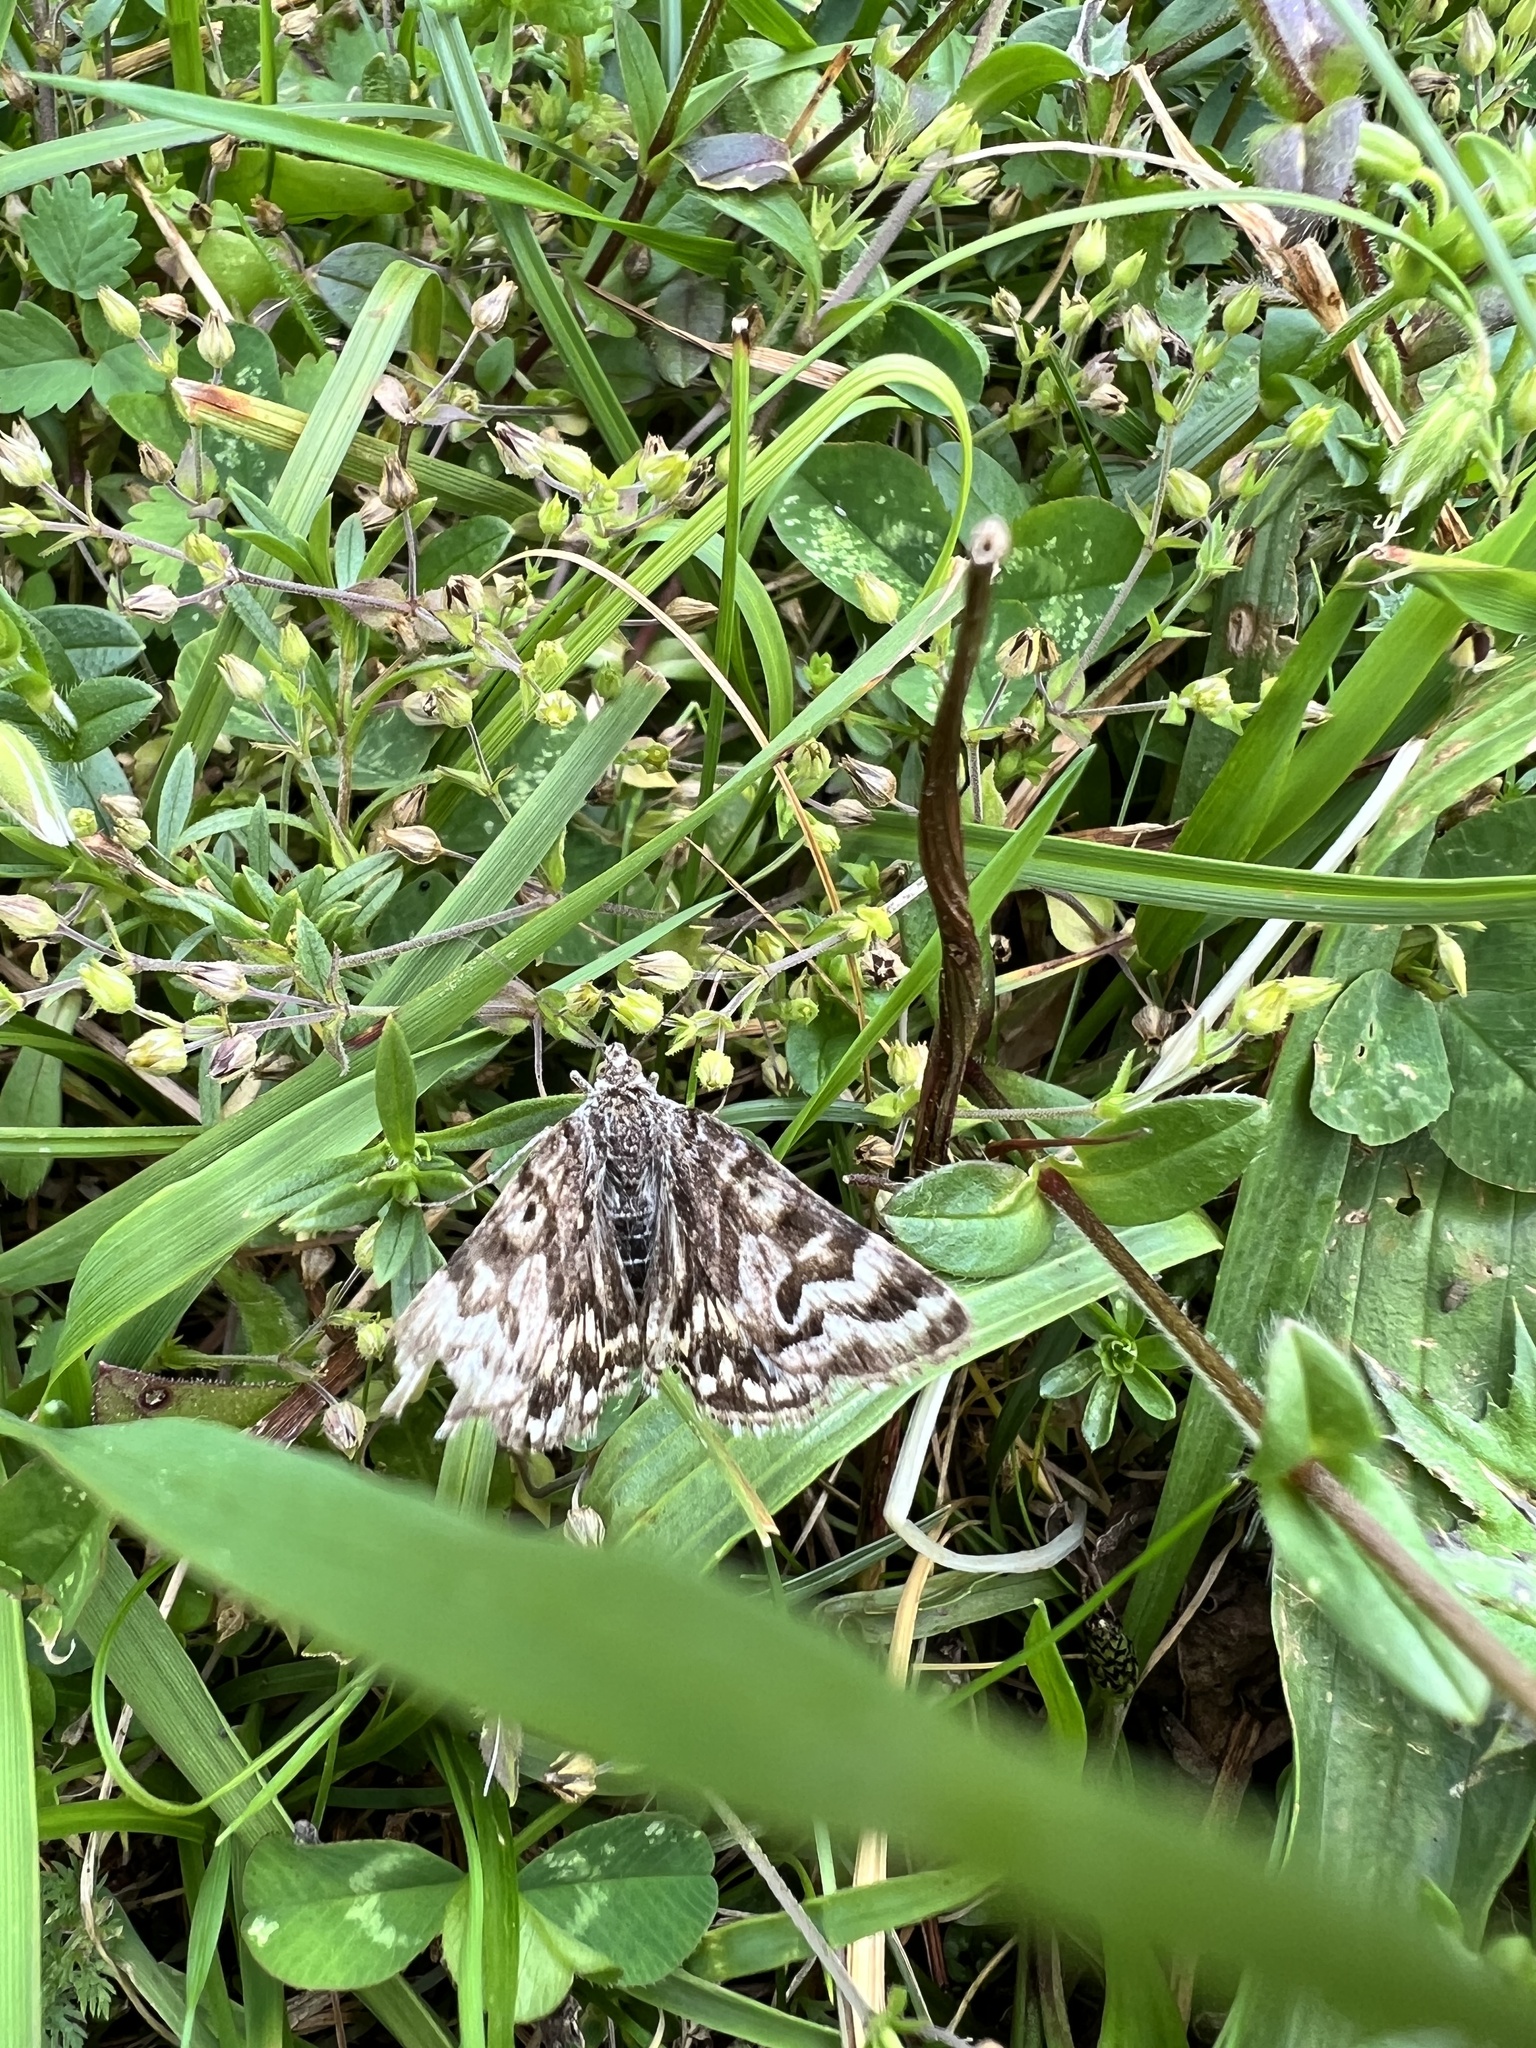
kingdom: Animalia
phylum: Arthropoda
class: Insecta
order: Lepidoptera
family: Erebidae
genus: Callistege
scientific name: Callistege mi
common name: Mother shipton
